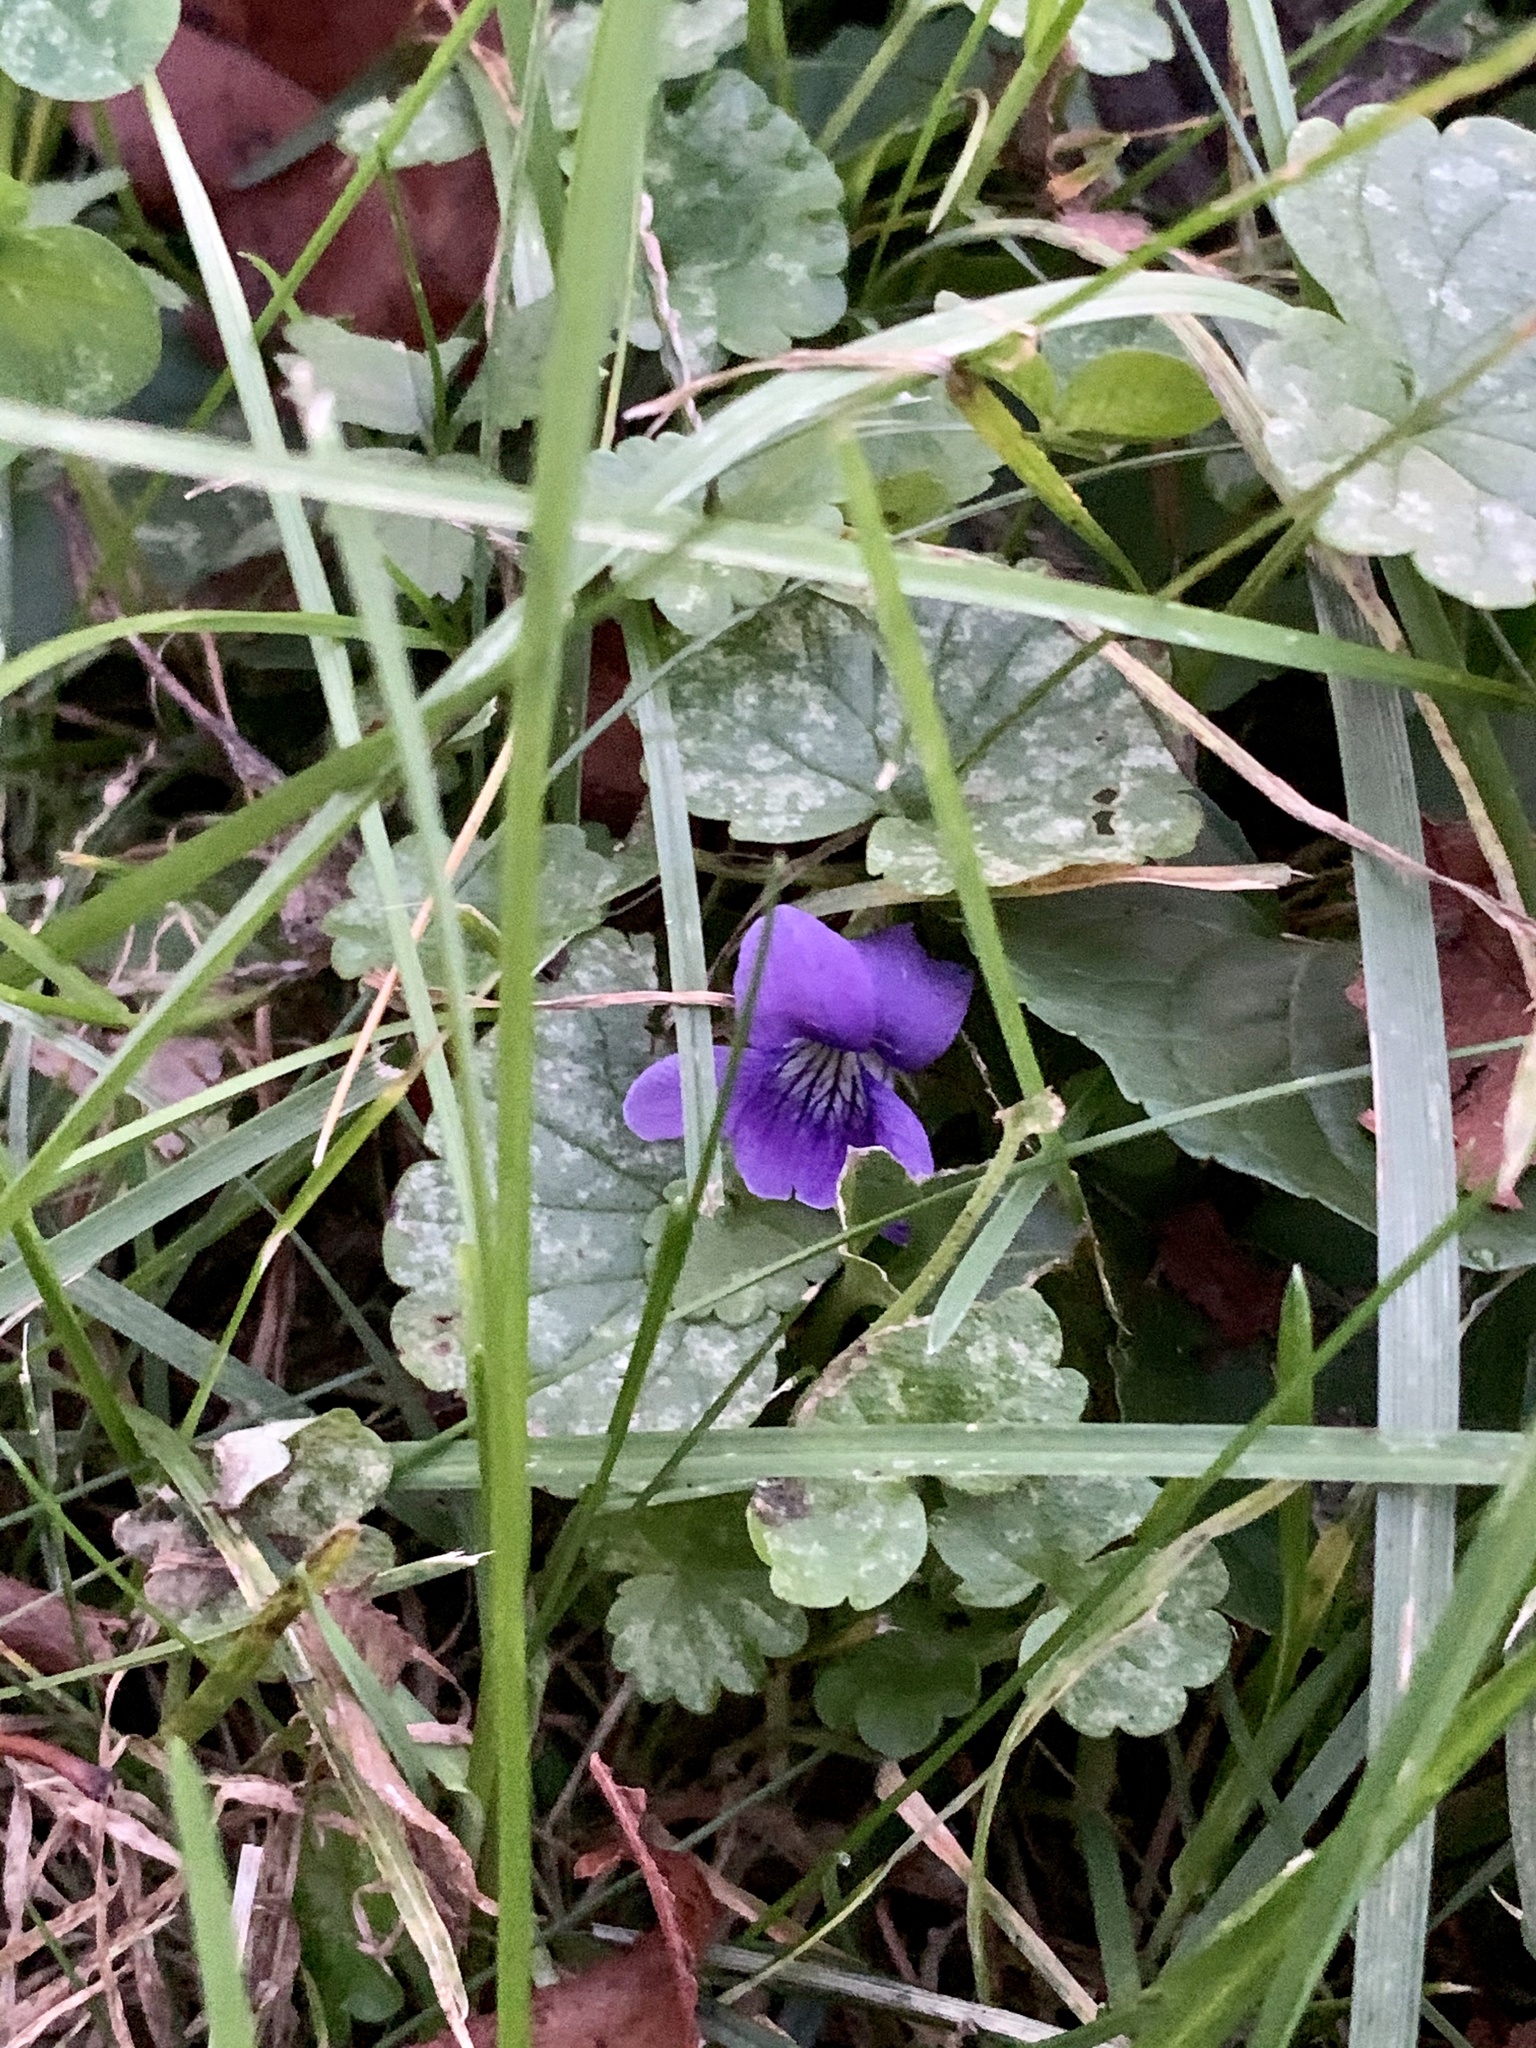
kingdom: Plantae
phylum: Tracheophyta
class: Magnoliopsida
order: Malpighiales
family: Violaceae
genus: Viola
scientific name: Viola sororia
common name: Dooryard violet
